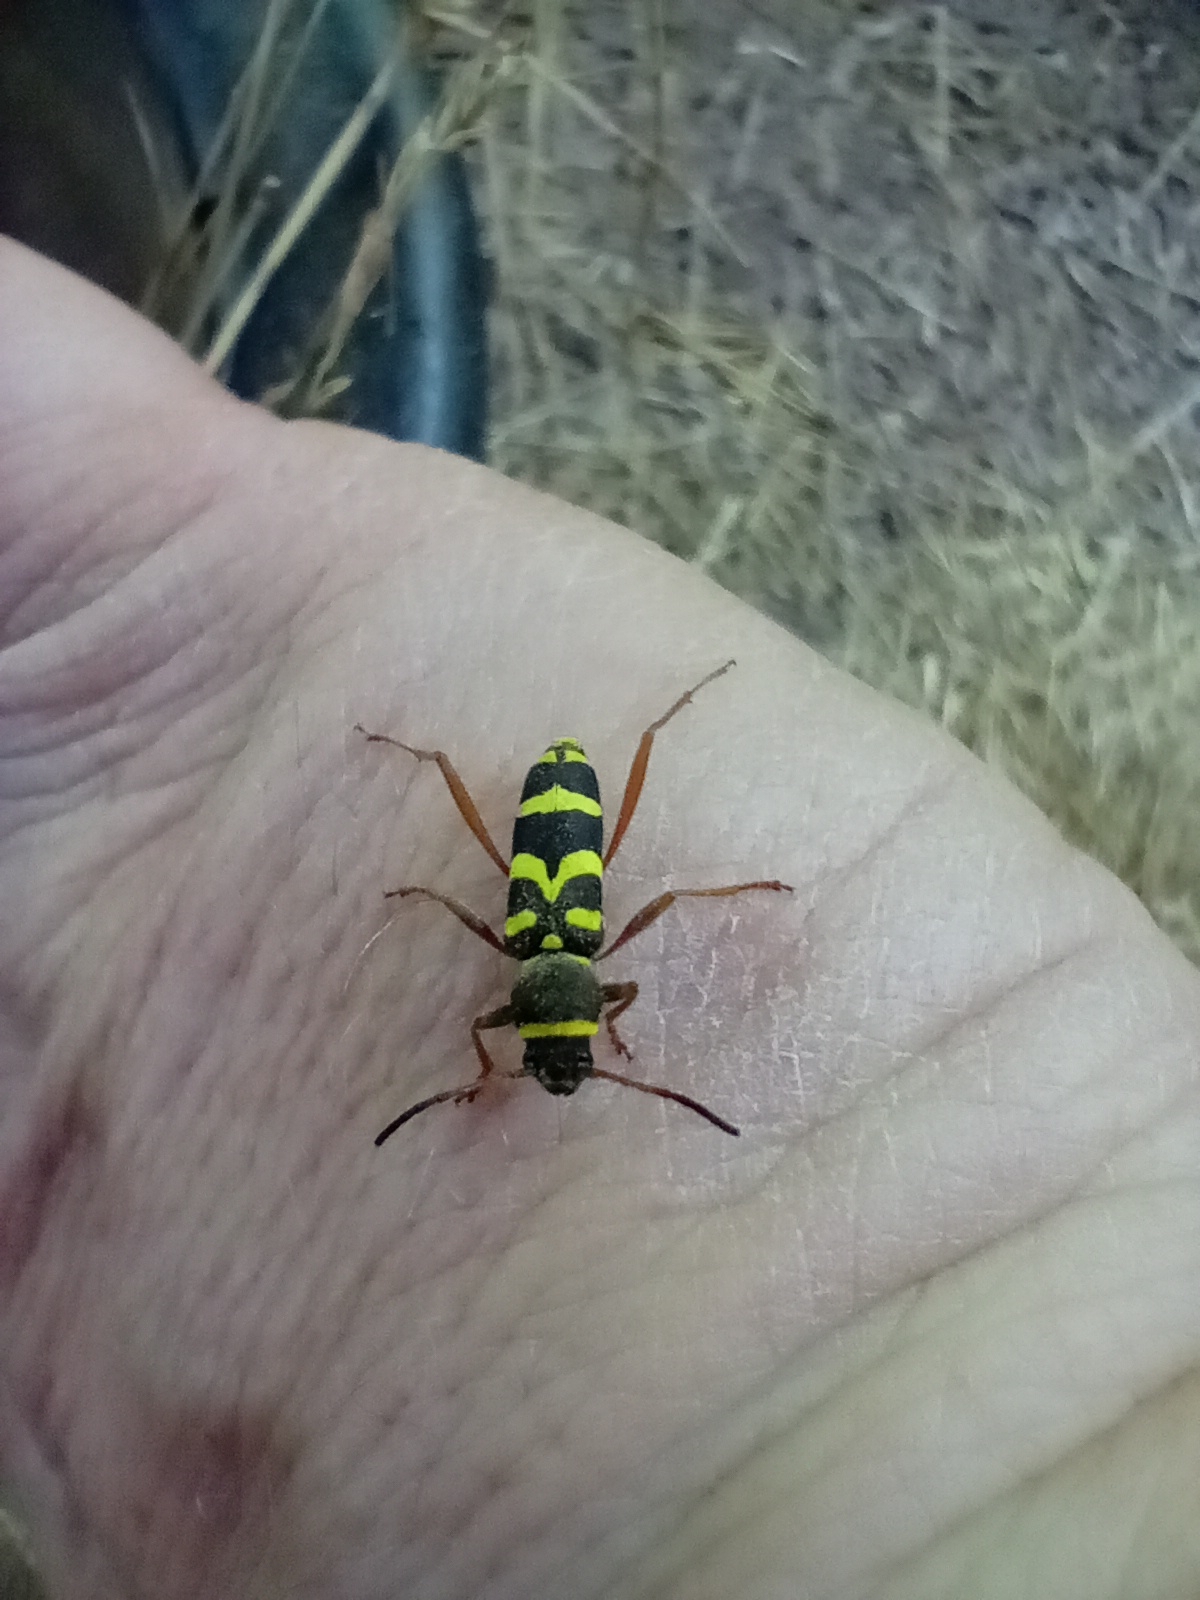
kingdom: Animalia
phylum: Arthropoda
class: Insecta
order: Coleoptera
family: Cerambycidae
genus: Clytus
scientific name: Clytus arietis
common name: Wasp beetle
